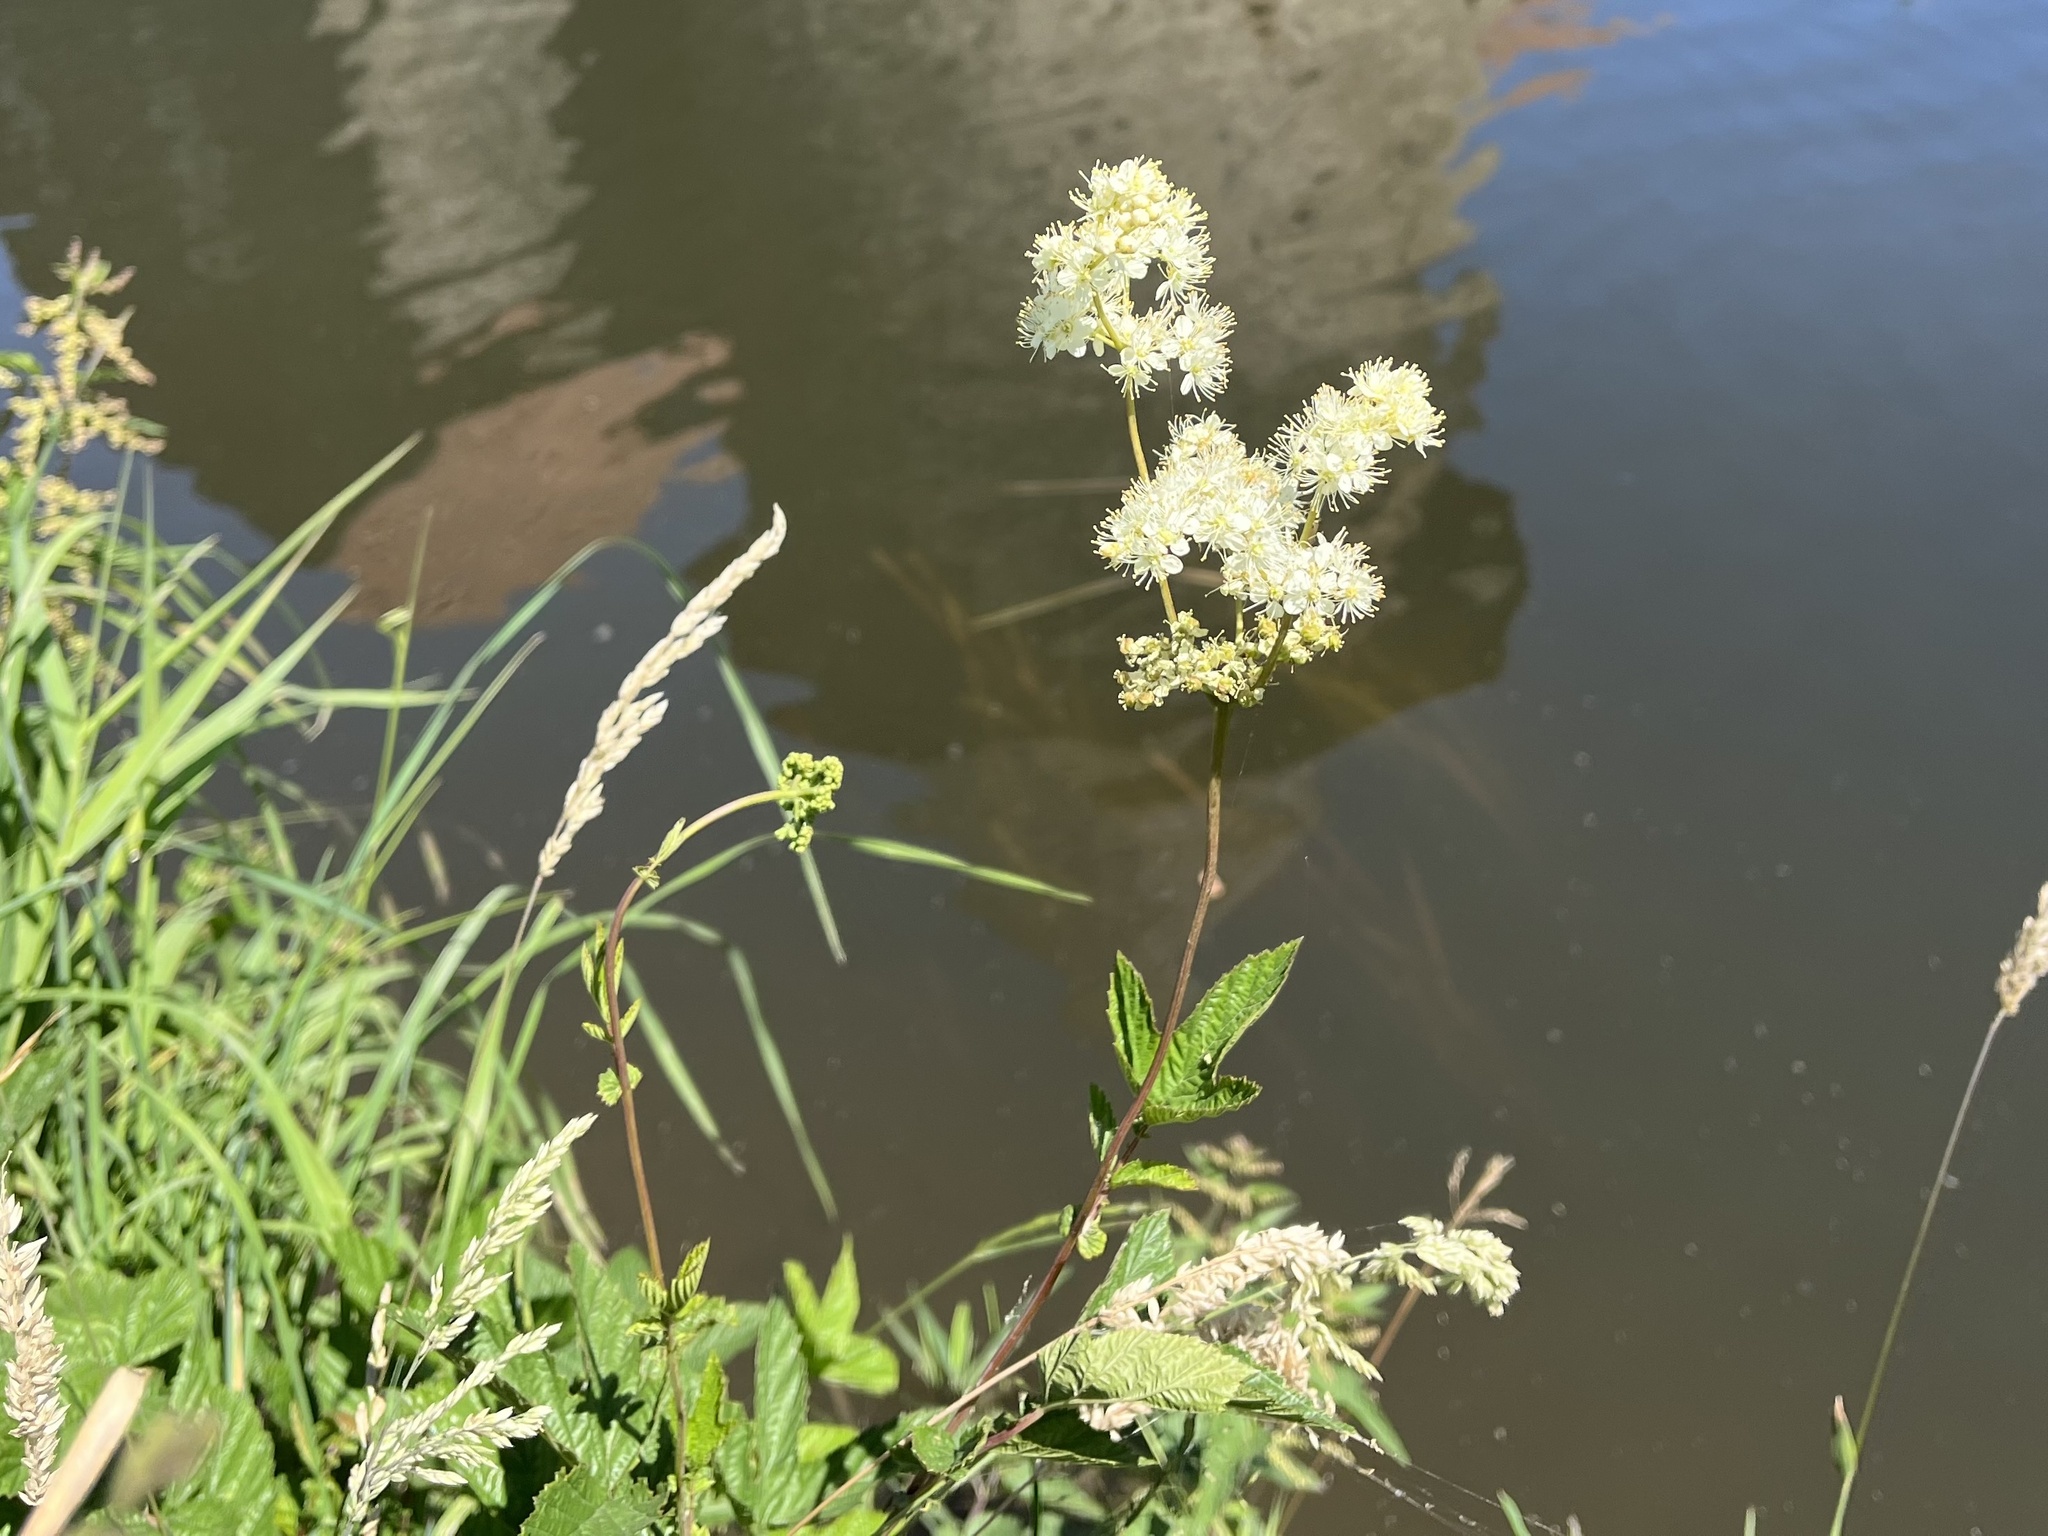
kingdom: Plantae
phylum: Tracheophyta
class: Magnoliopsida
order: Rosales
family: Rosaceae
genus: Filipendula
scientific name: Filipendula ulmaria
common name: Meadowsweet
